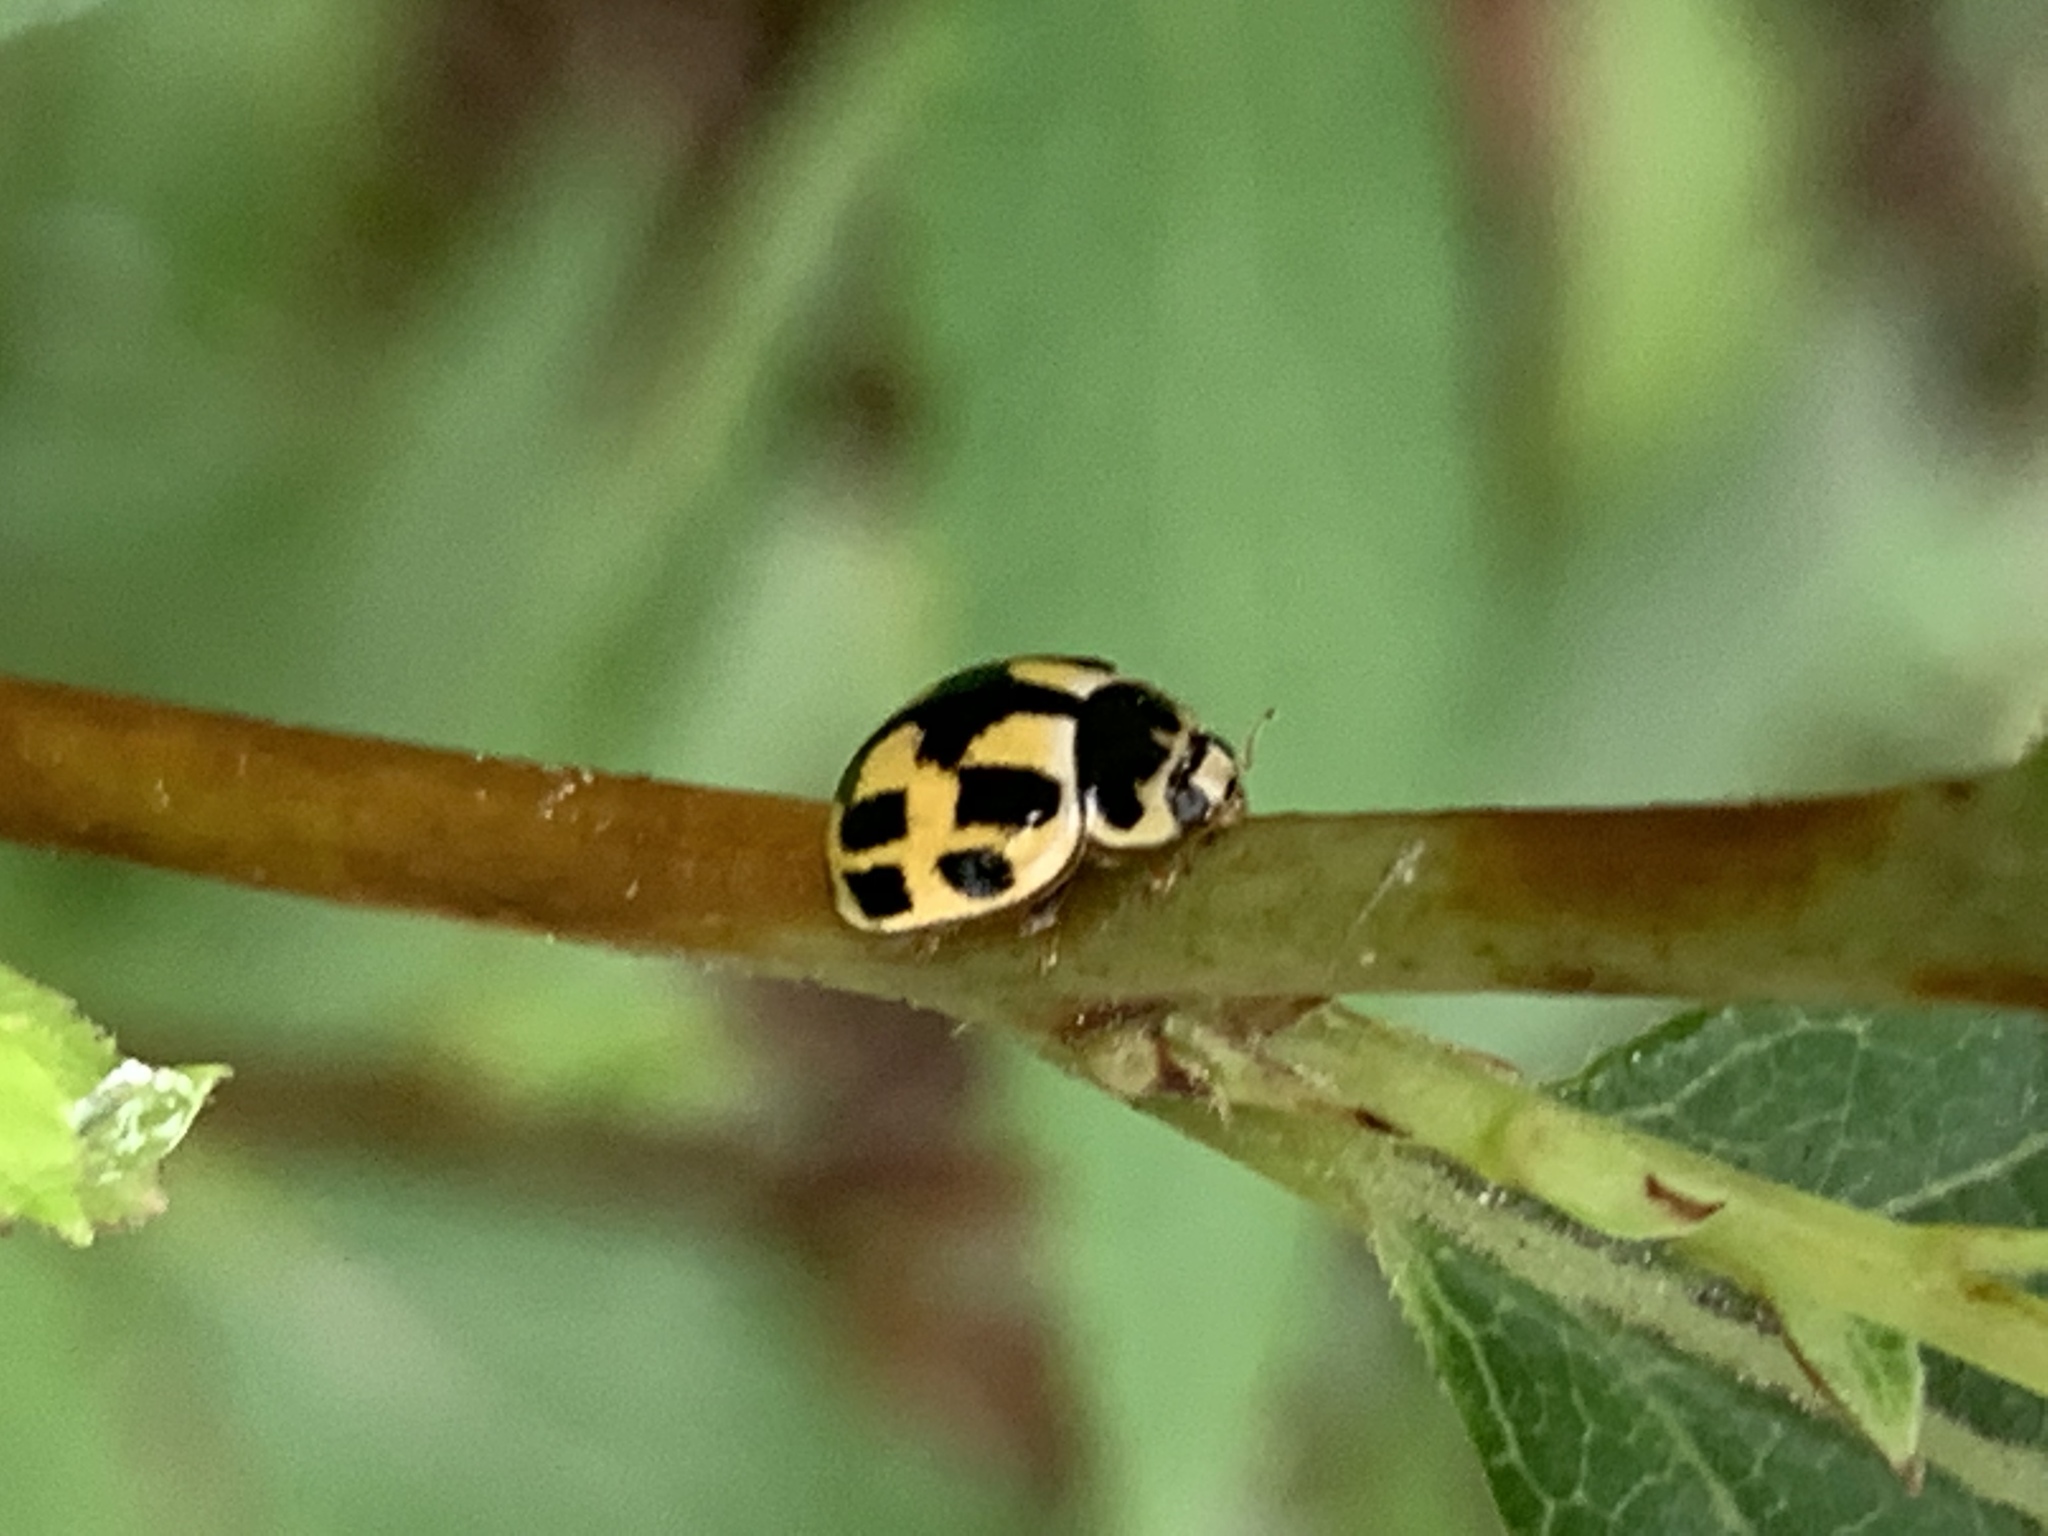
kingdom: Animalia
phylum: Arthropoda
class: Insecta
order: Coleoptera
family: Coccinellidae
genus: Propylaea
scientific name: Propylaea quatuordecimpunctata
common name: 14-spotted ladybird beetle
